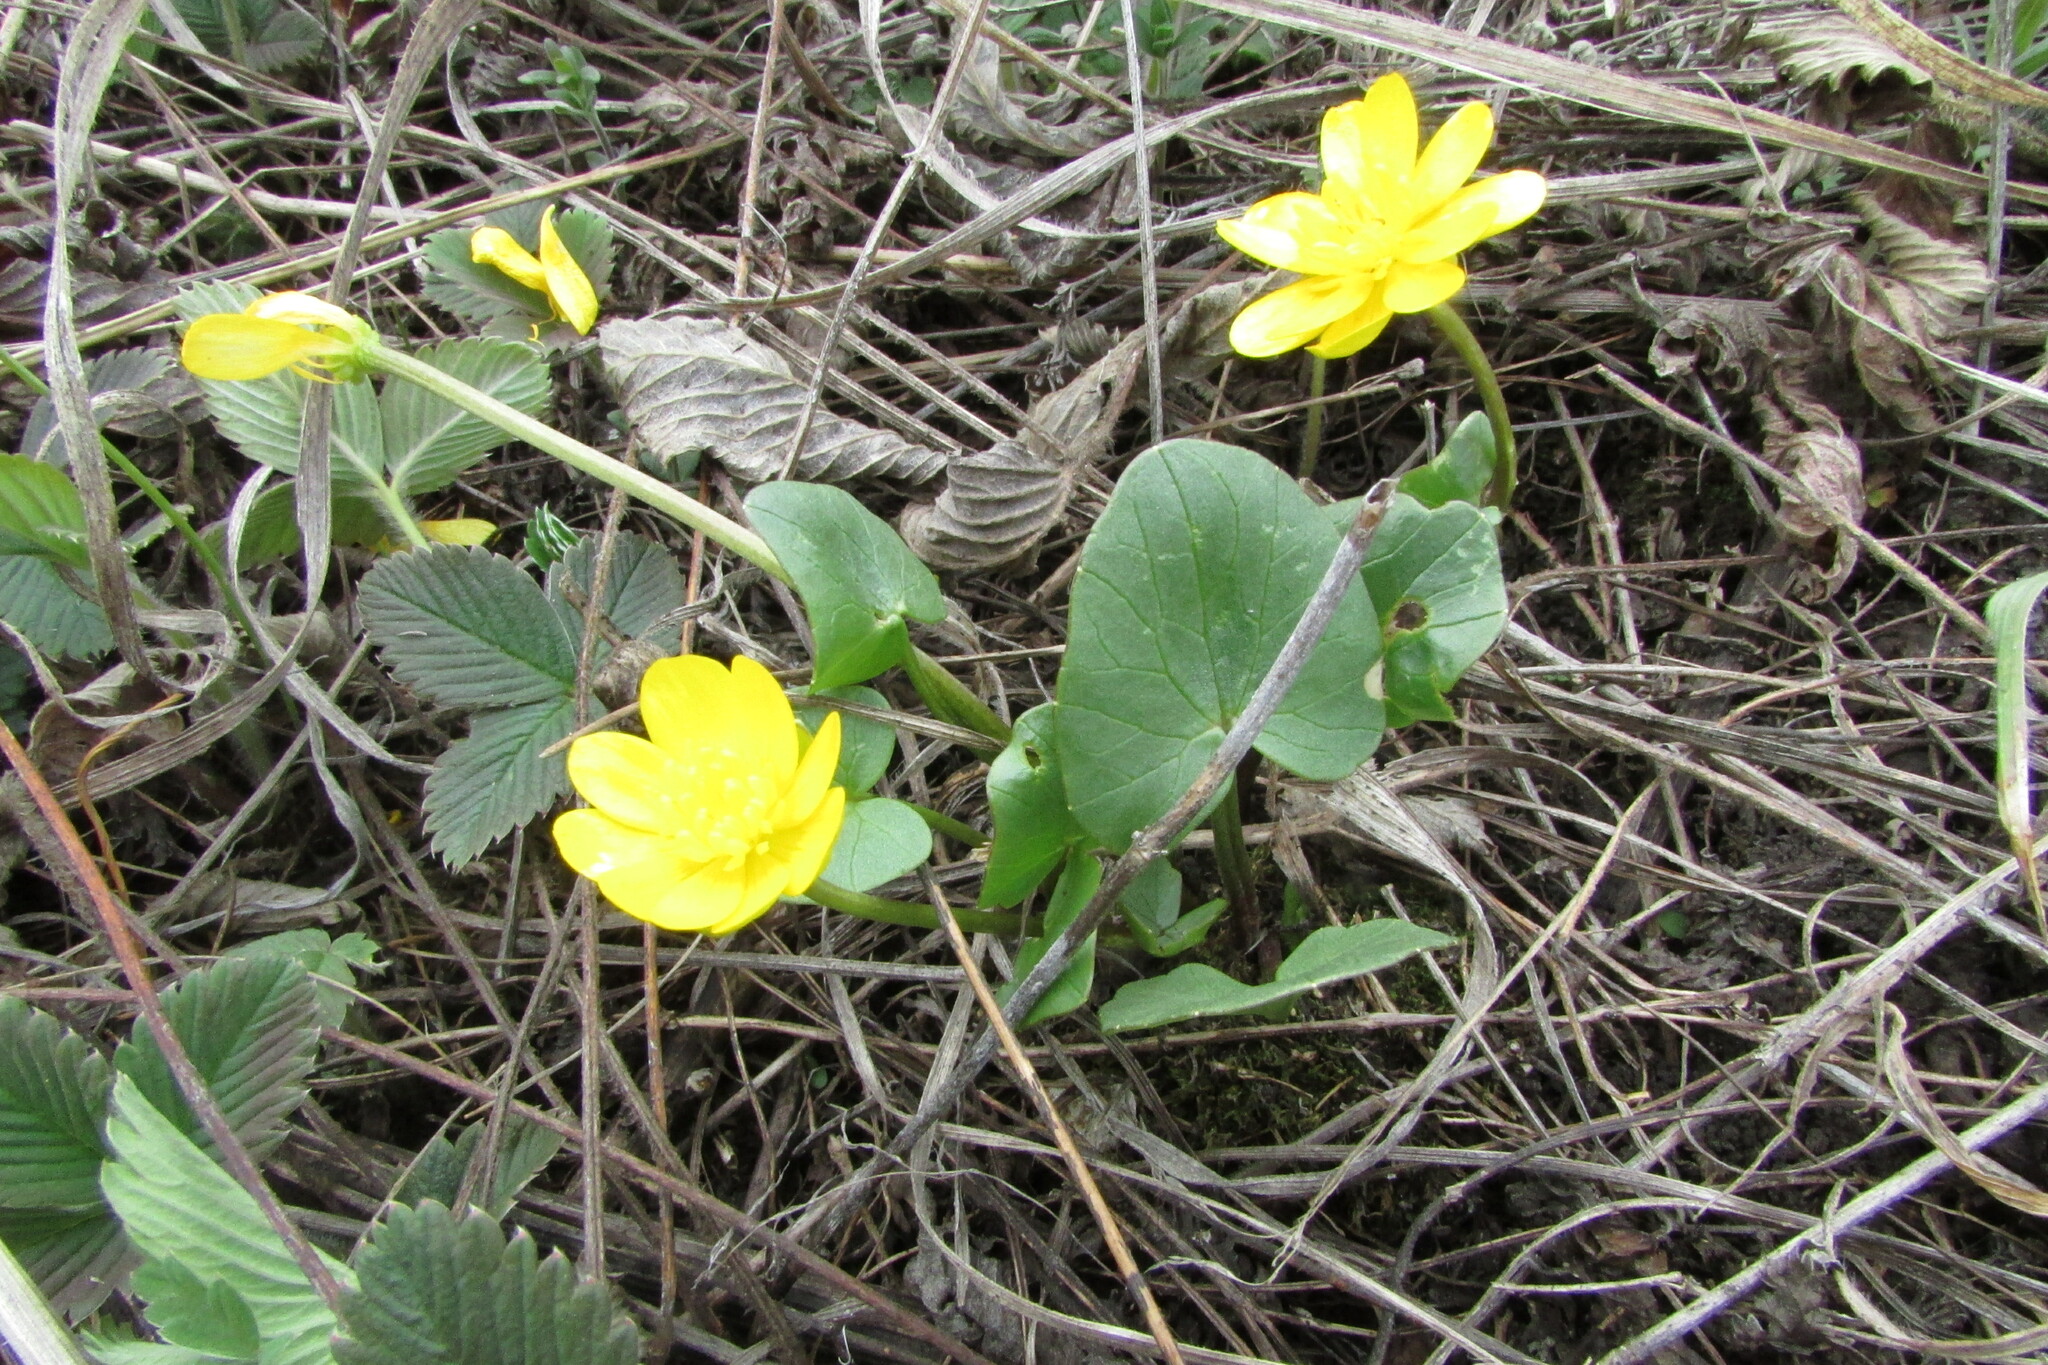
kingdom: Plantae
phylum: Tracheophyta
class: Magnoliopsida
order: Ranunculales
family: Ranunculaceae
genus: Ficaria
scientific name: Ficaria
